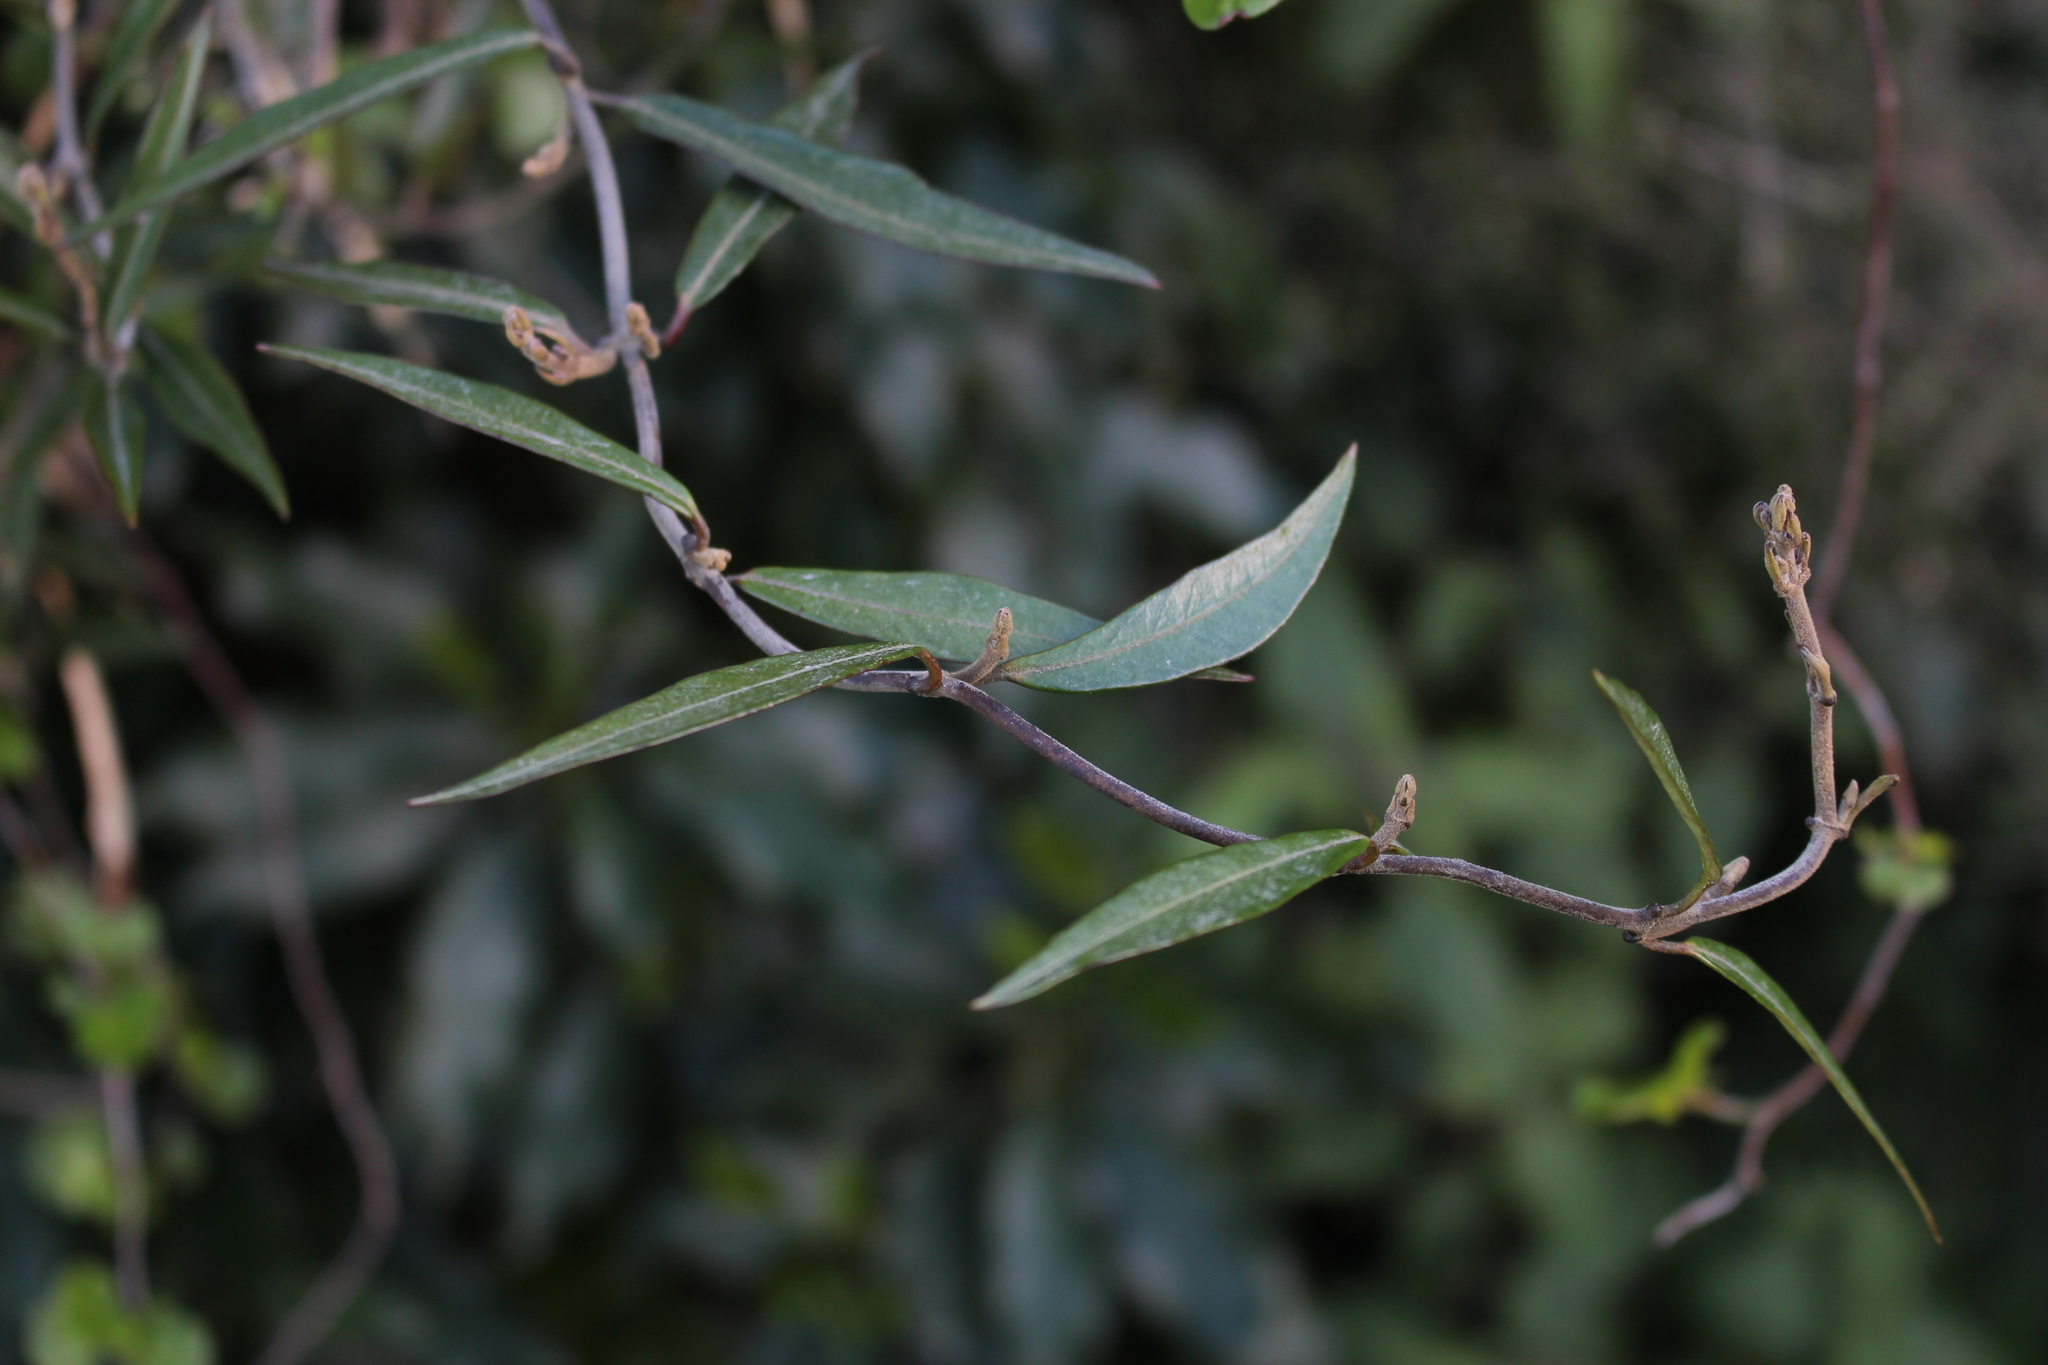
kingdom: Plantae
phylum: Tracheophyta
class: Magnoliopsida
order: Gentianales
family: Apocynaceae
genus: Parsonsia
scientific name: Parsonsia heterophylla
